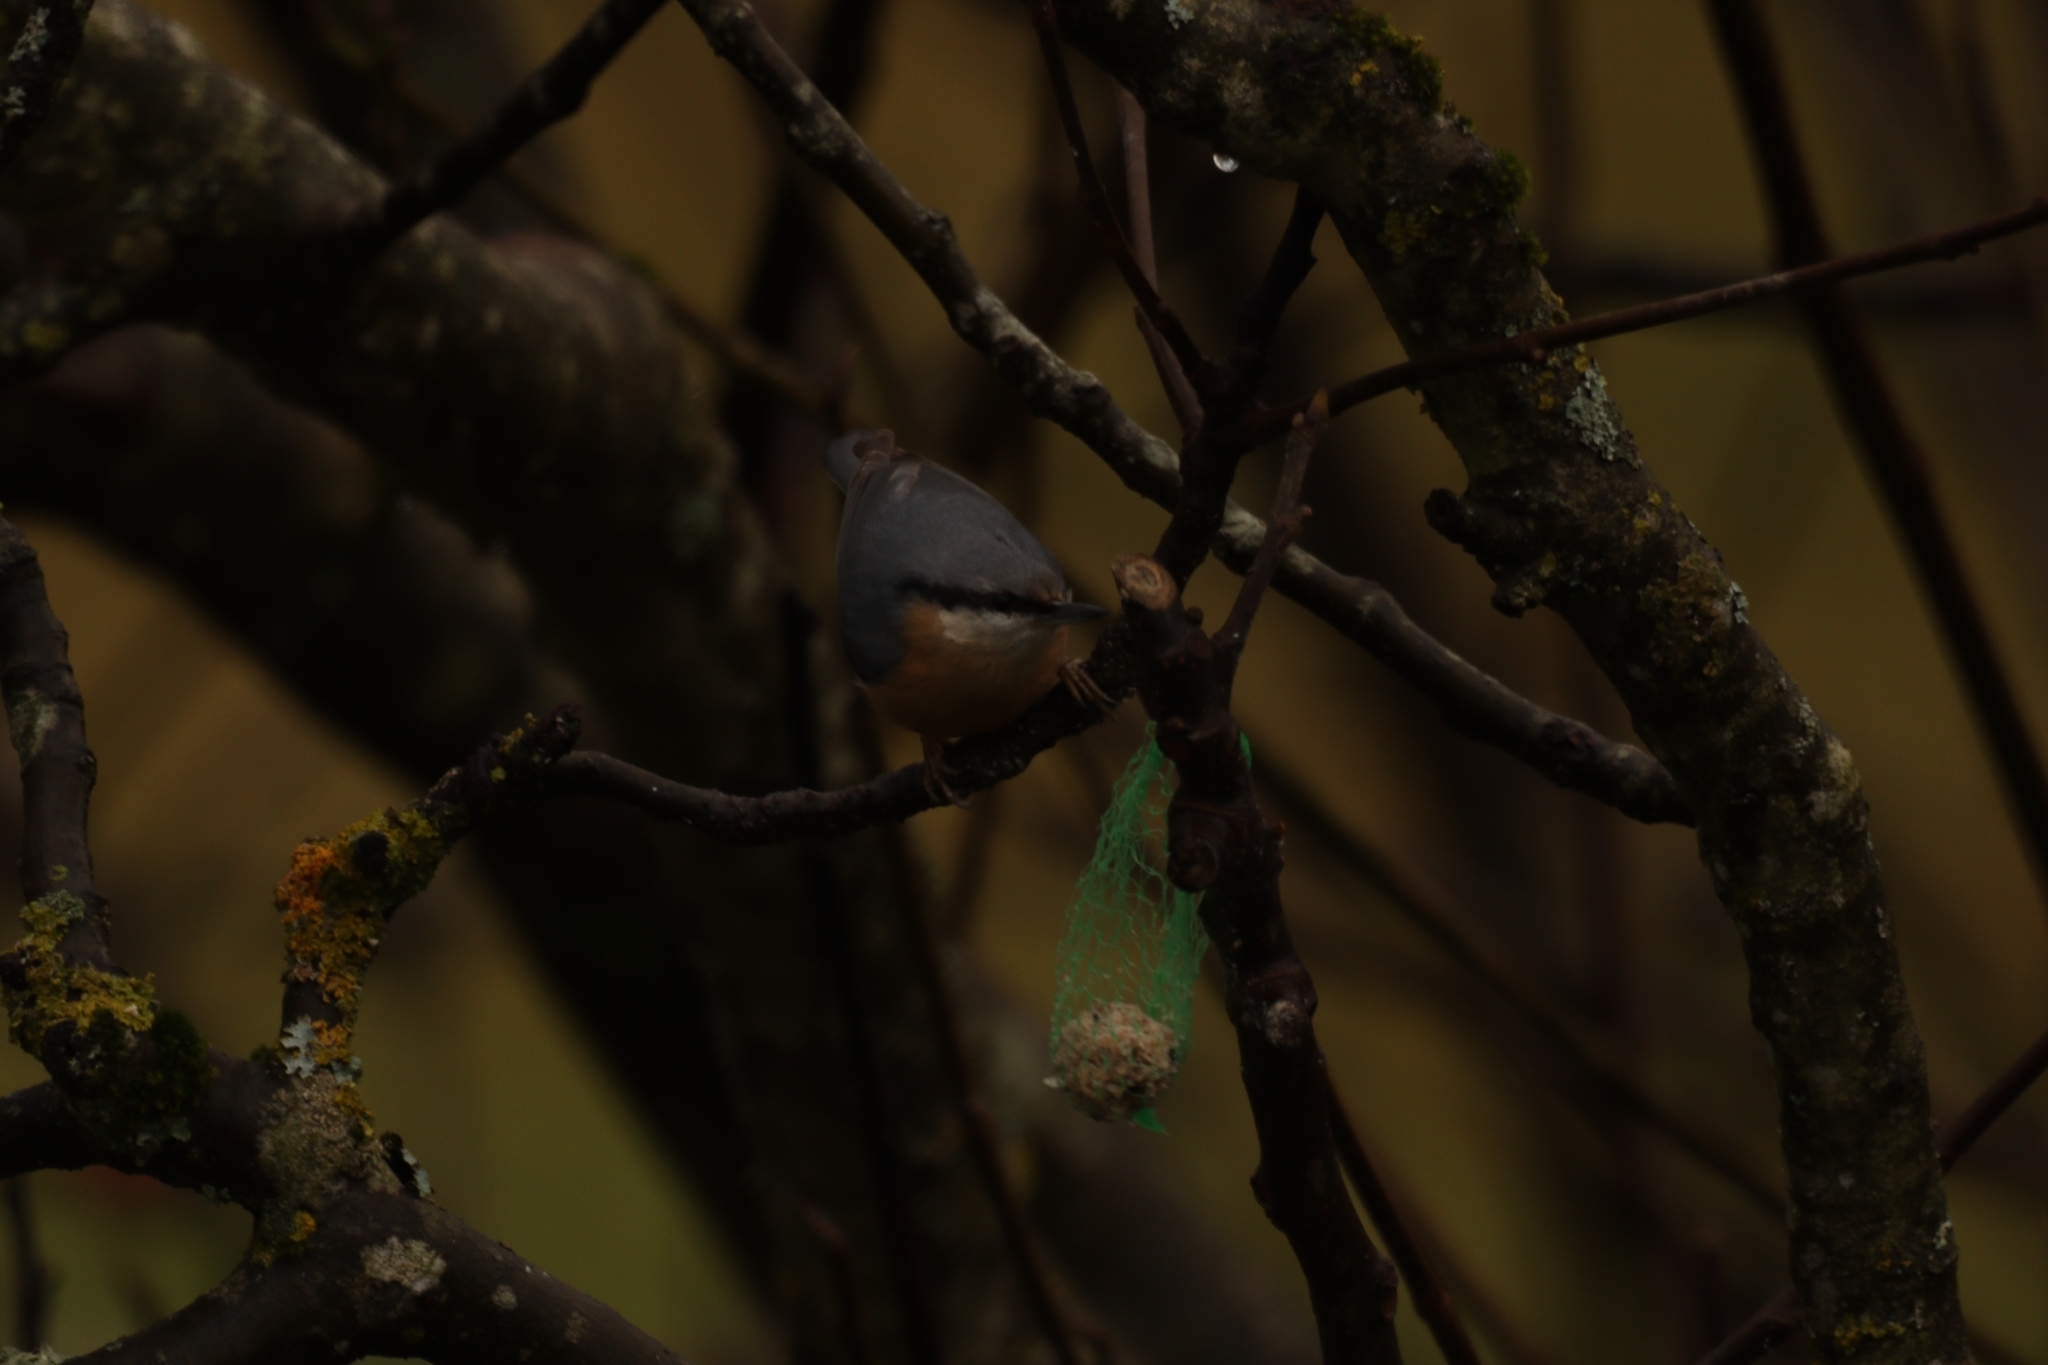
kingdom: Animalia
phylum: Chordata
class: Aves
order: Passeriformes
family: Sittidae
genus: Sitta
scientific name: Sitta europaea
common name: Eurasian nuthatch
